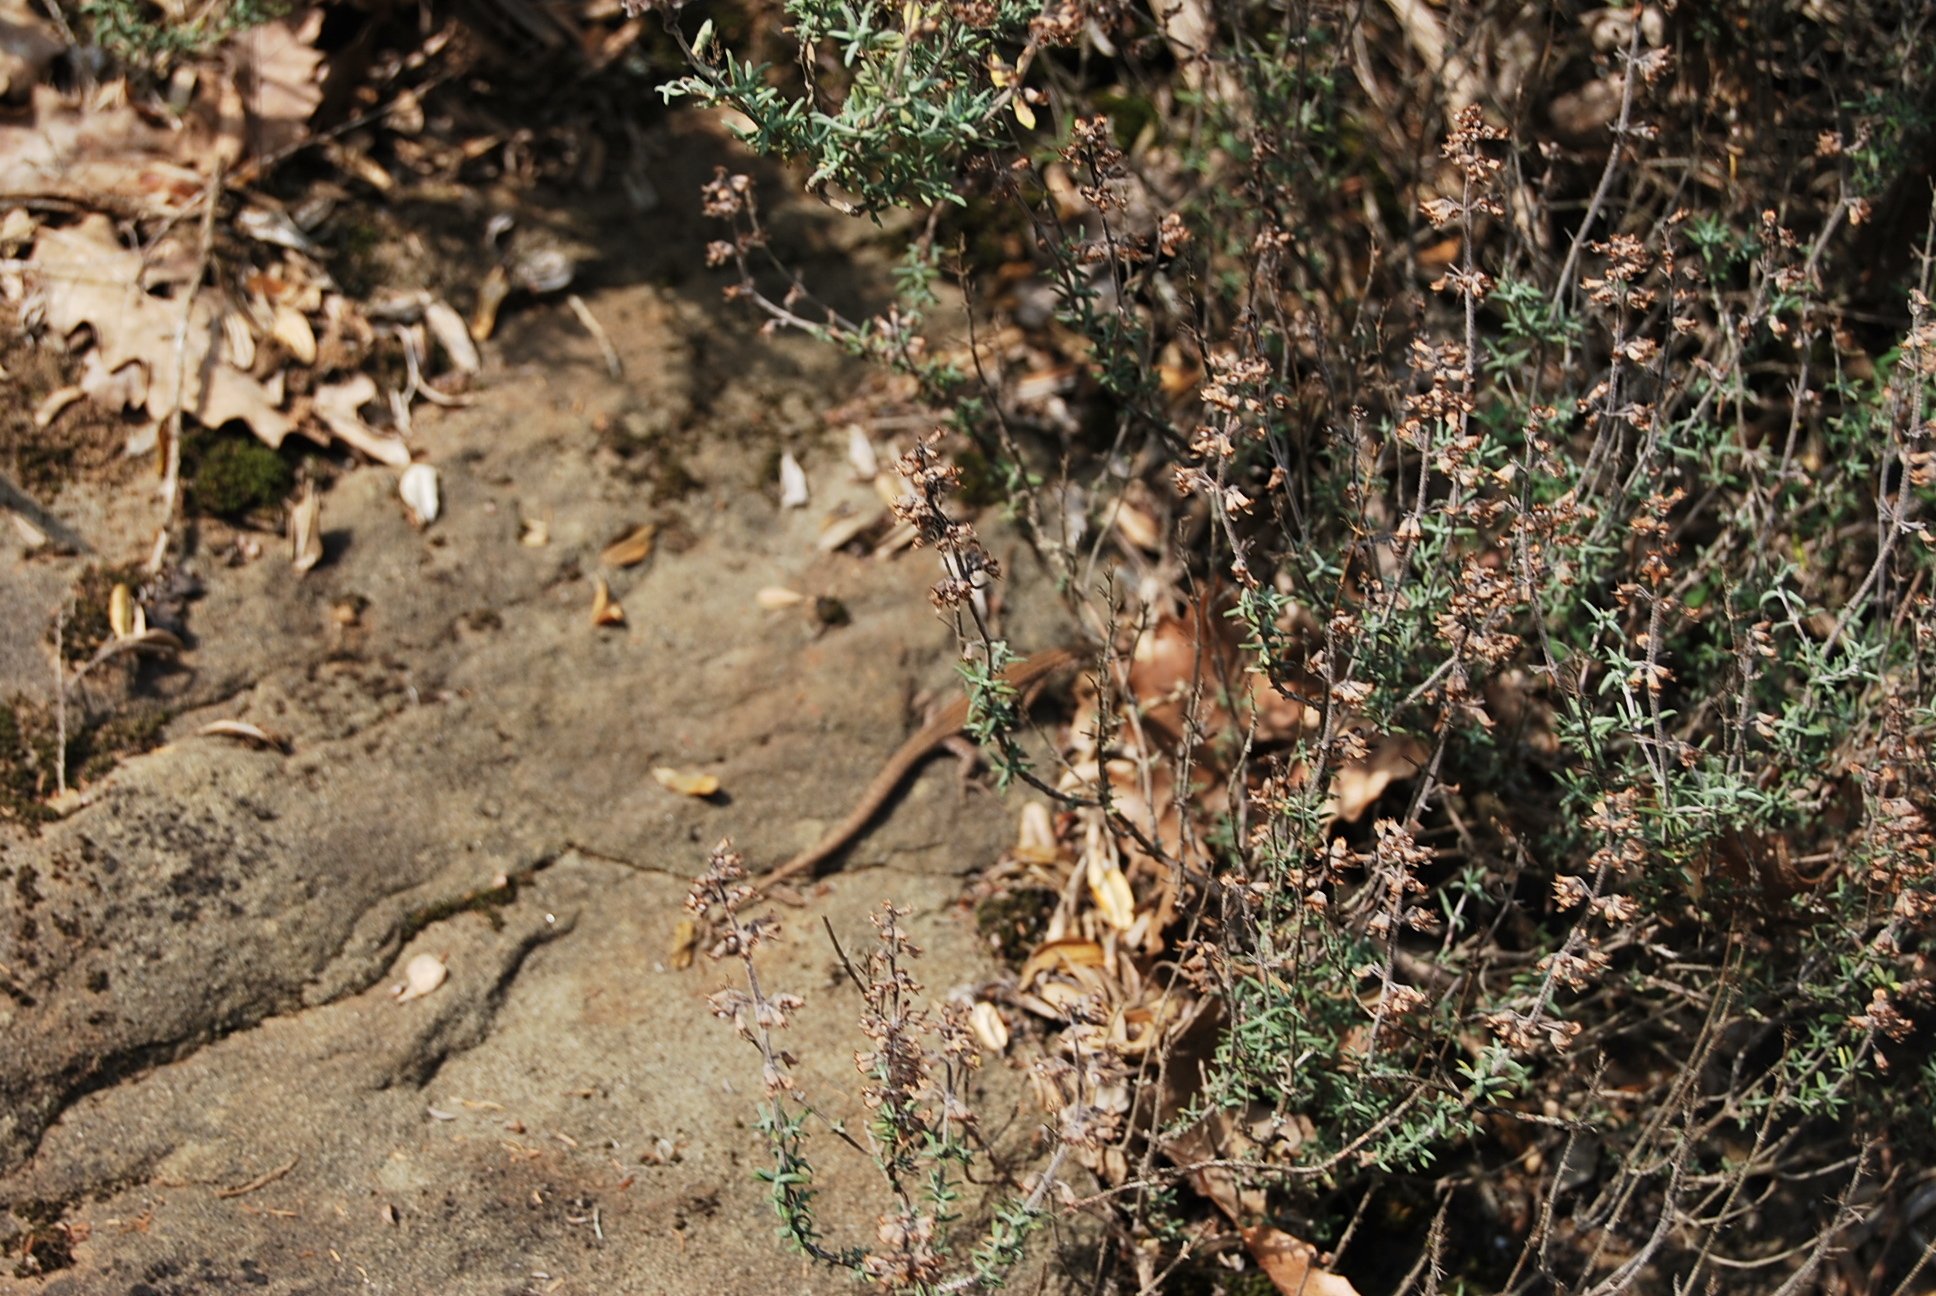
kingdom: Animalia
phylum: Chordata
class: Squamata
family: Lacertidae
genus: Podarcis
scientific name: Podarcis liolepis
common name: Catalonian wall lizard
